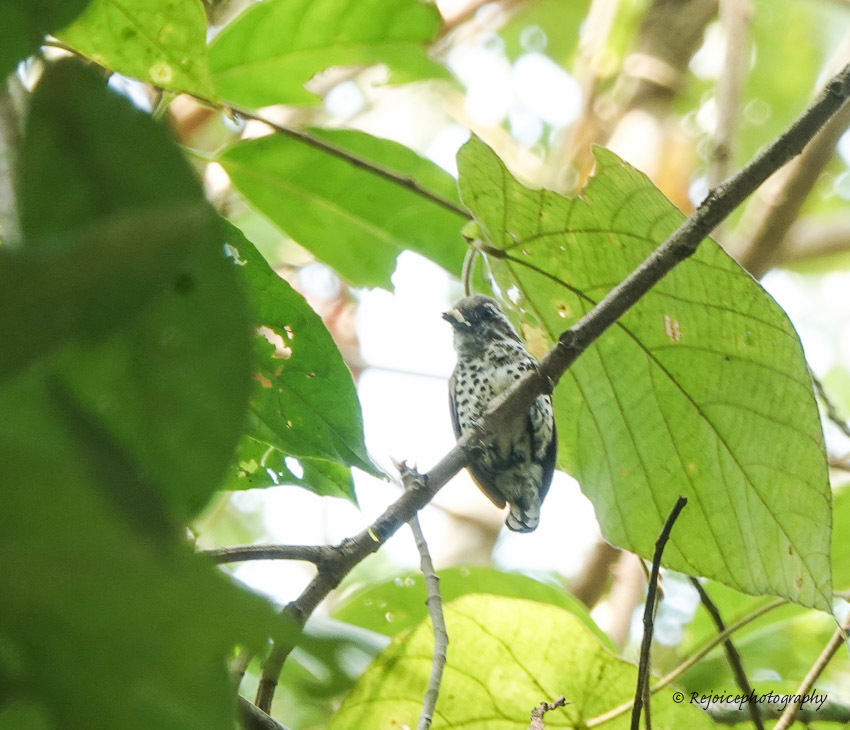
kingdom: Animalia
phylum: Chordata
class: Aves
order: Piciformes
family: Picidae
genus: Picumnus
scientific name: Picumnus innominatus
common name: Speckled piculet
